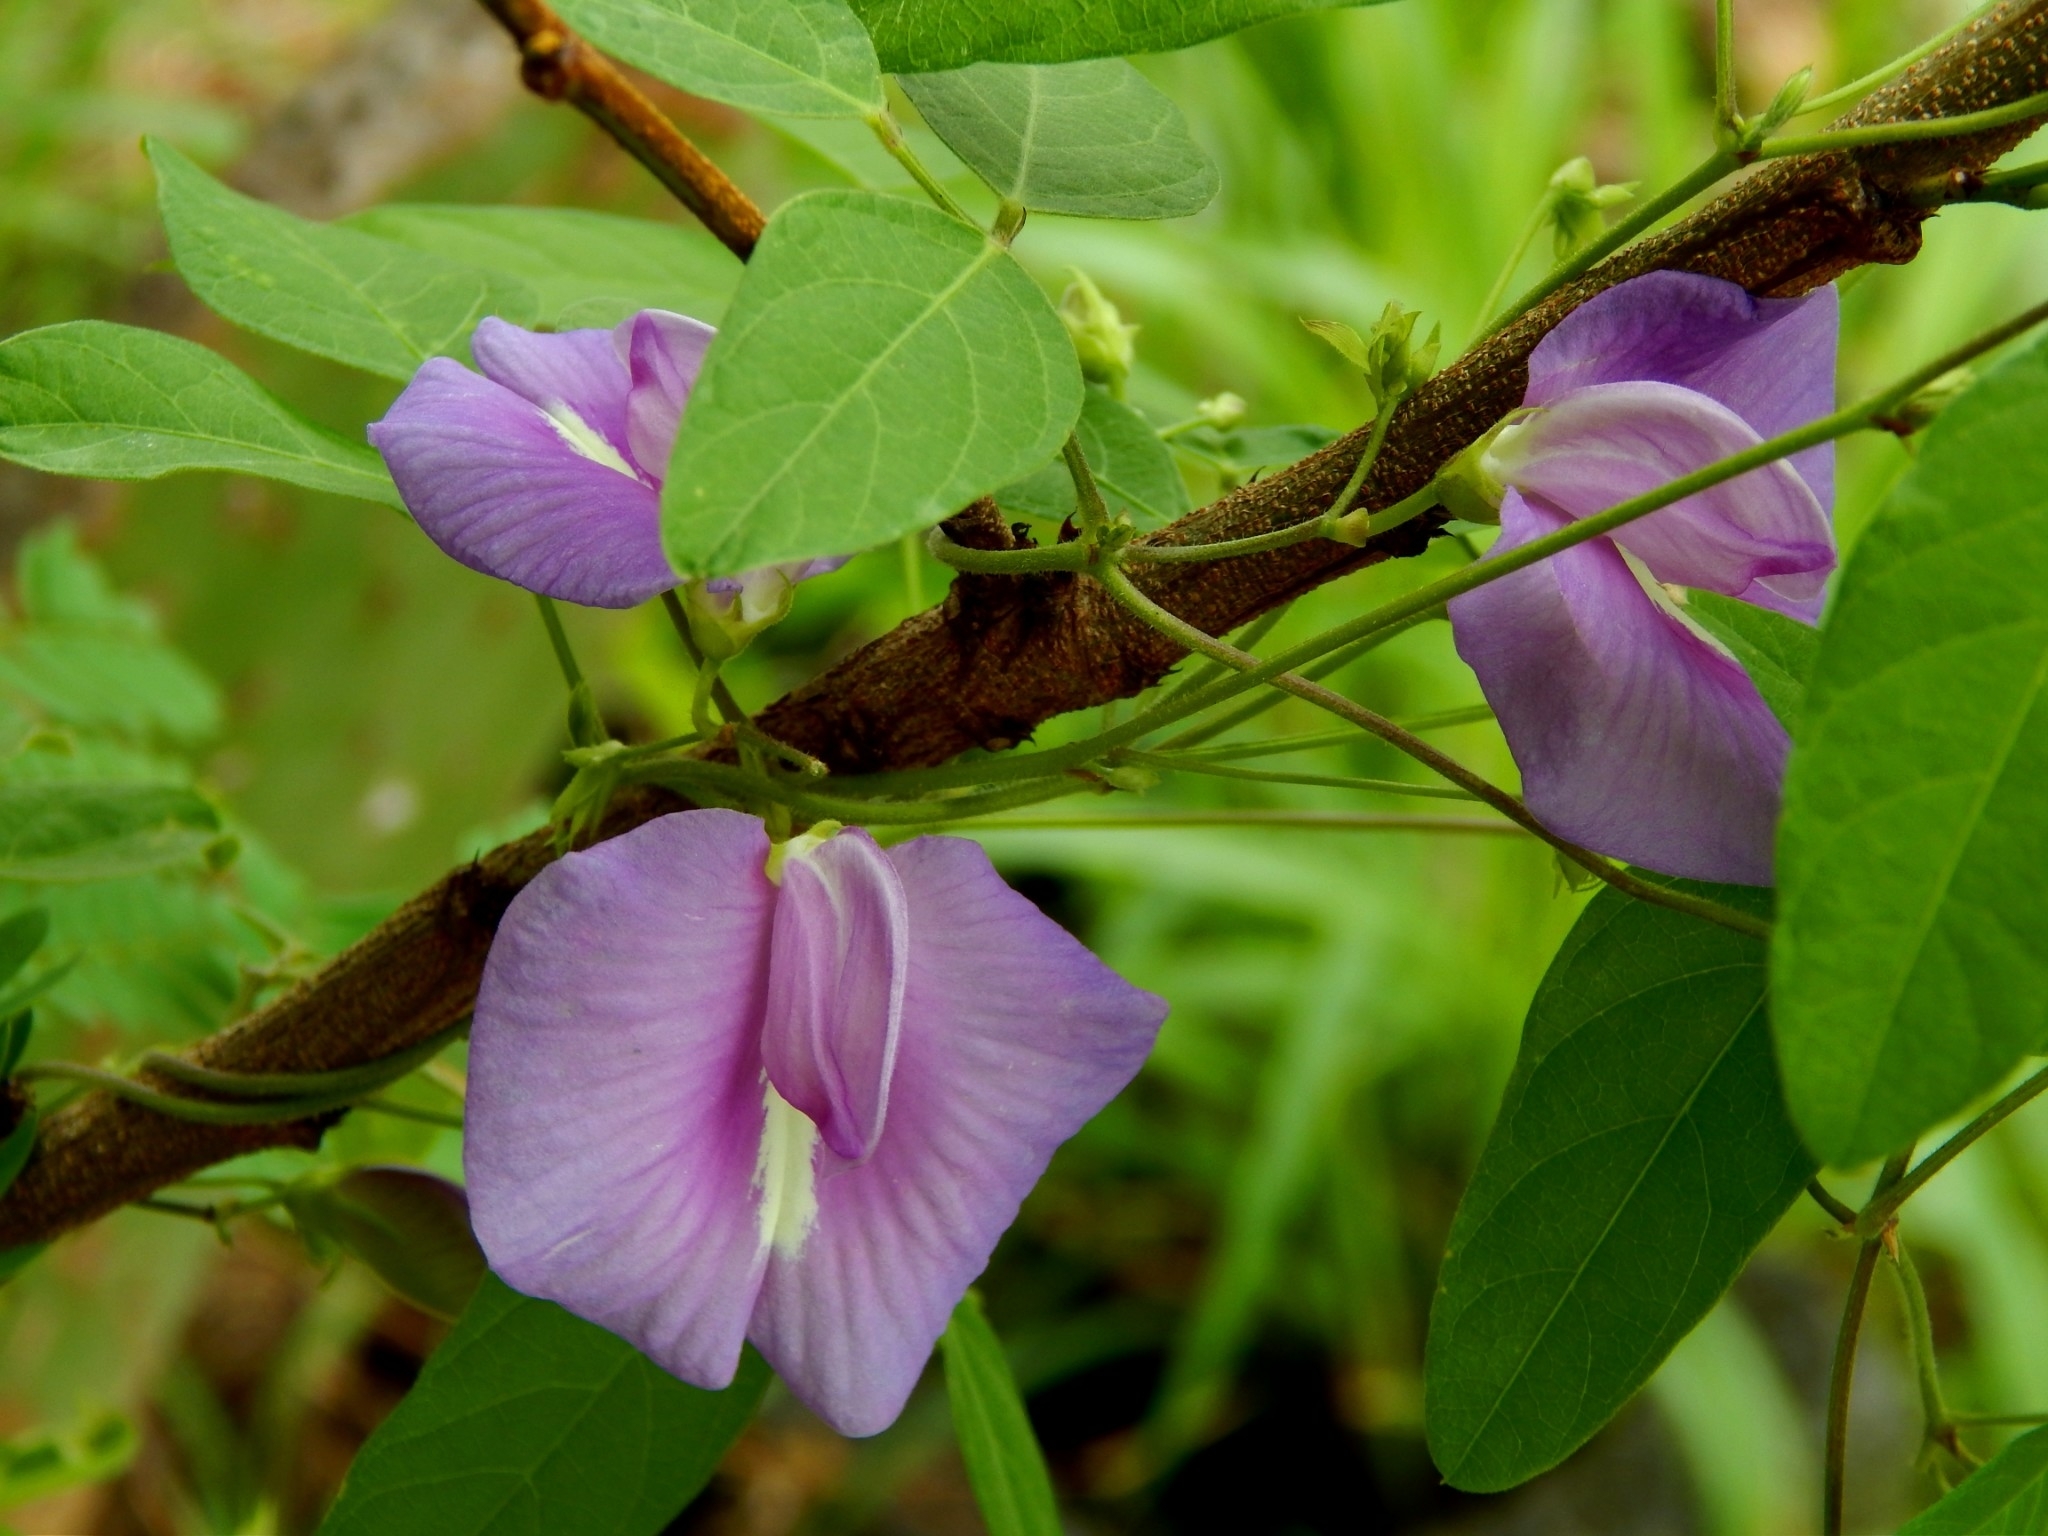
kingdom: Plantae
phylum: Tracheophyta
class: Magnoliopsida
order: Fabales
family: Fabaceae
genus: Centrosema
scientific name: Centrosema virginianum
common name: Butterfly-pea
